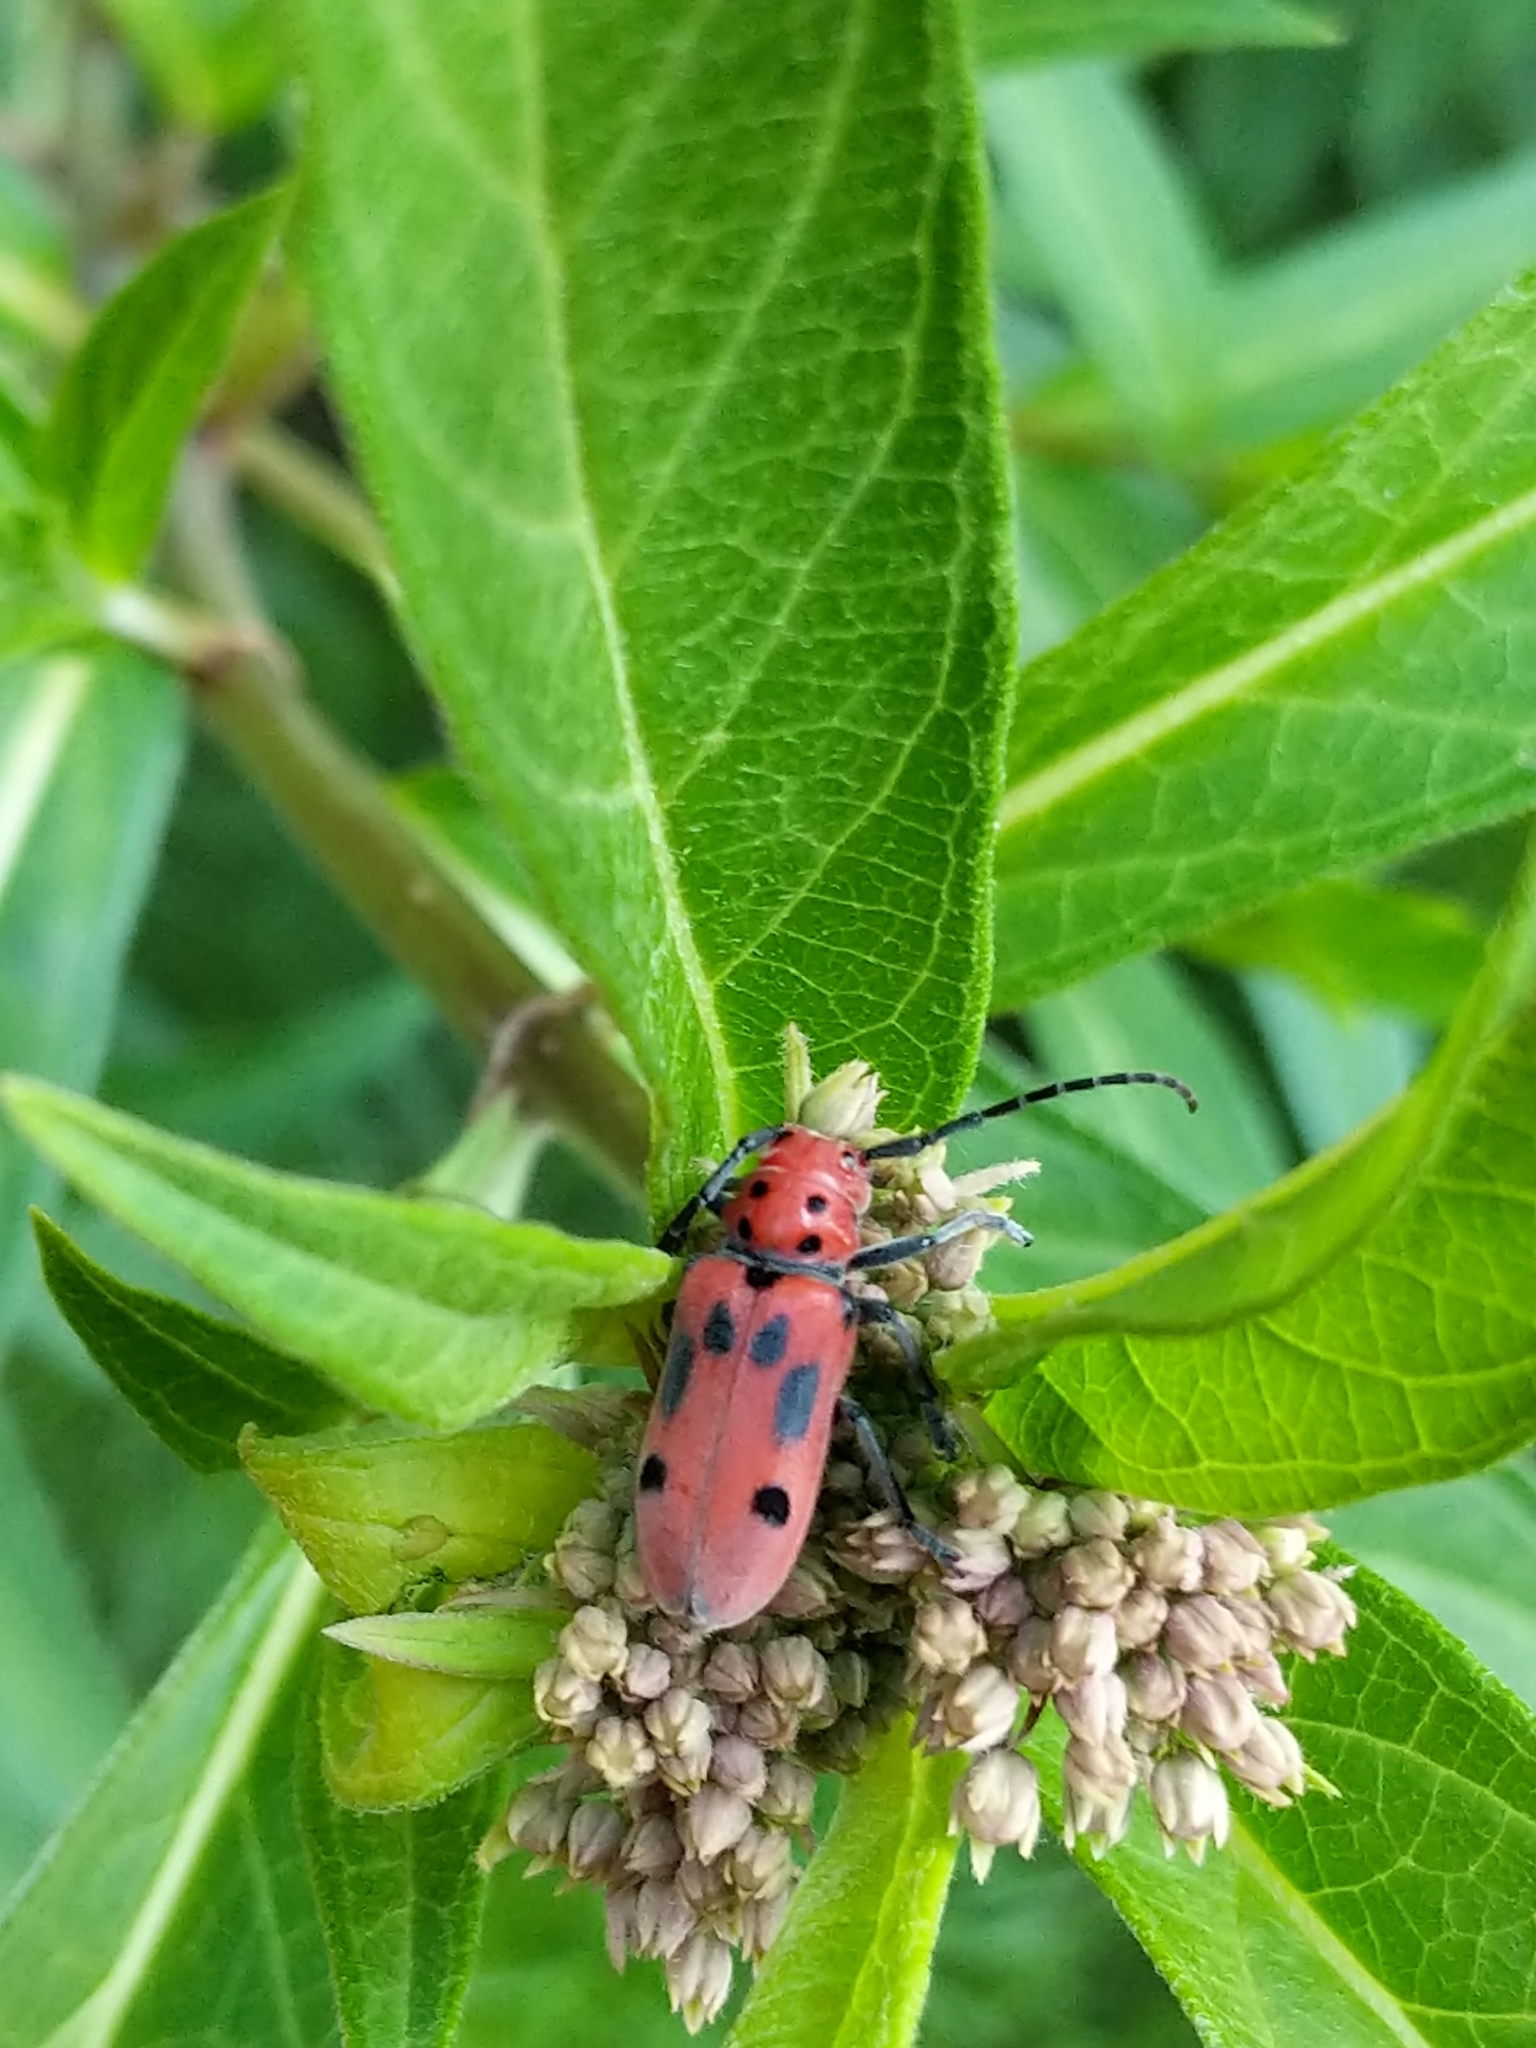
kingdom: Animalia
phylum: Arthropoda
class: Insecta
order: Coleoptera
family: Cerambycidae
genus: Tetraopes
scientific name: Tetraopes tetrophthalmus
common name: Red milkweed beetle
